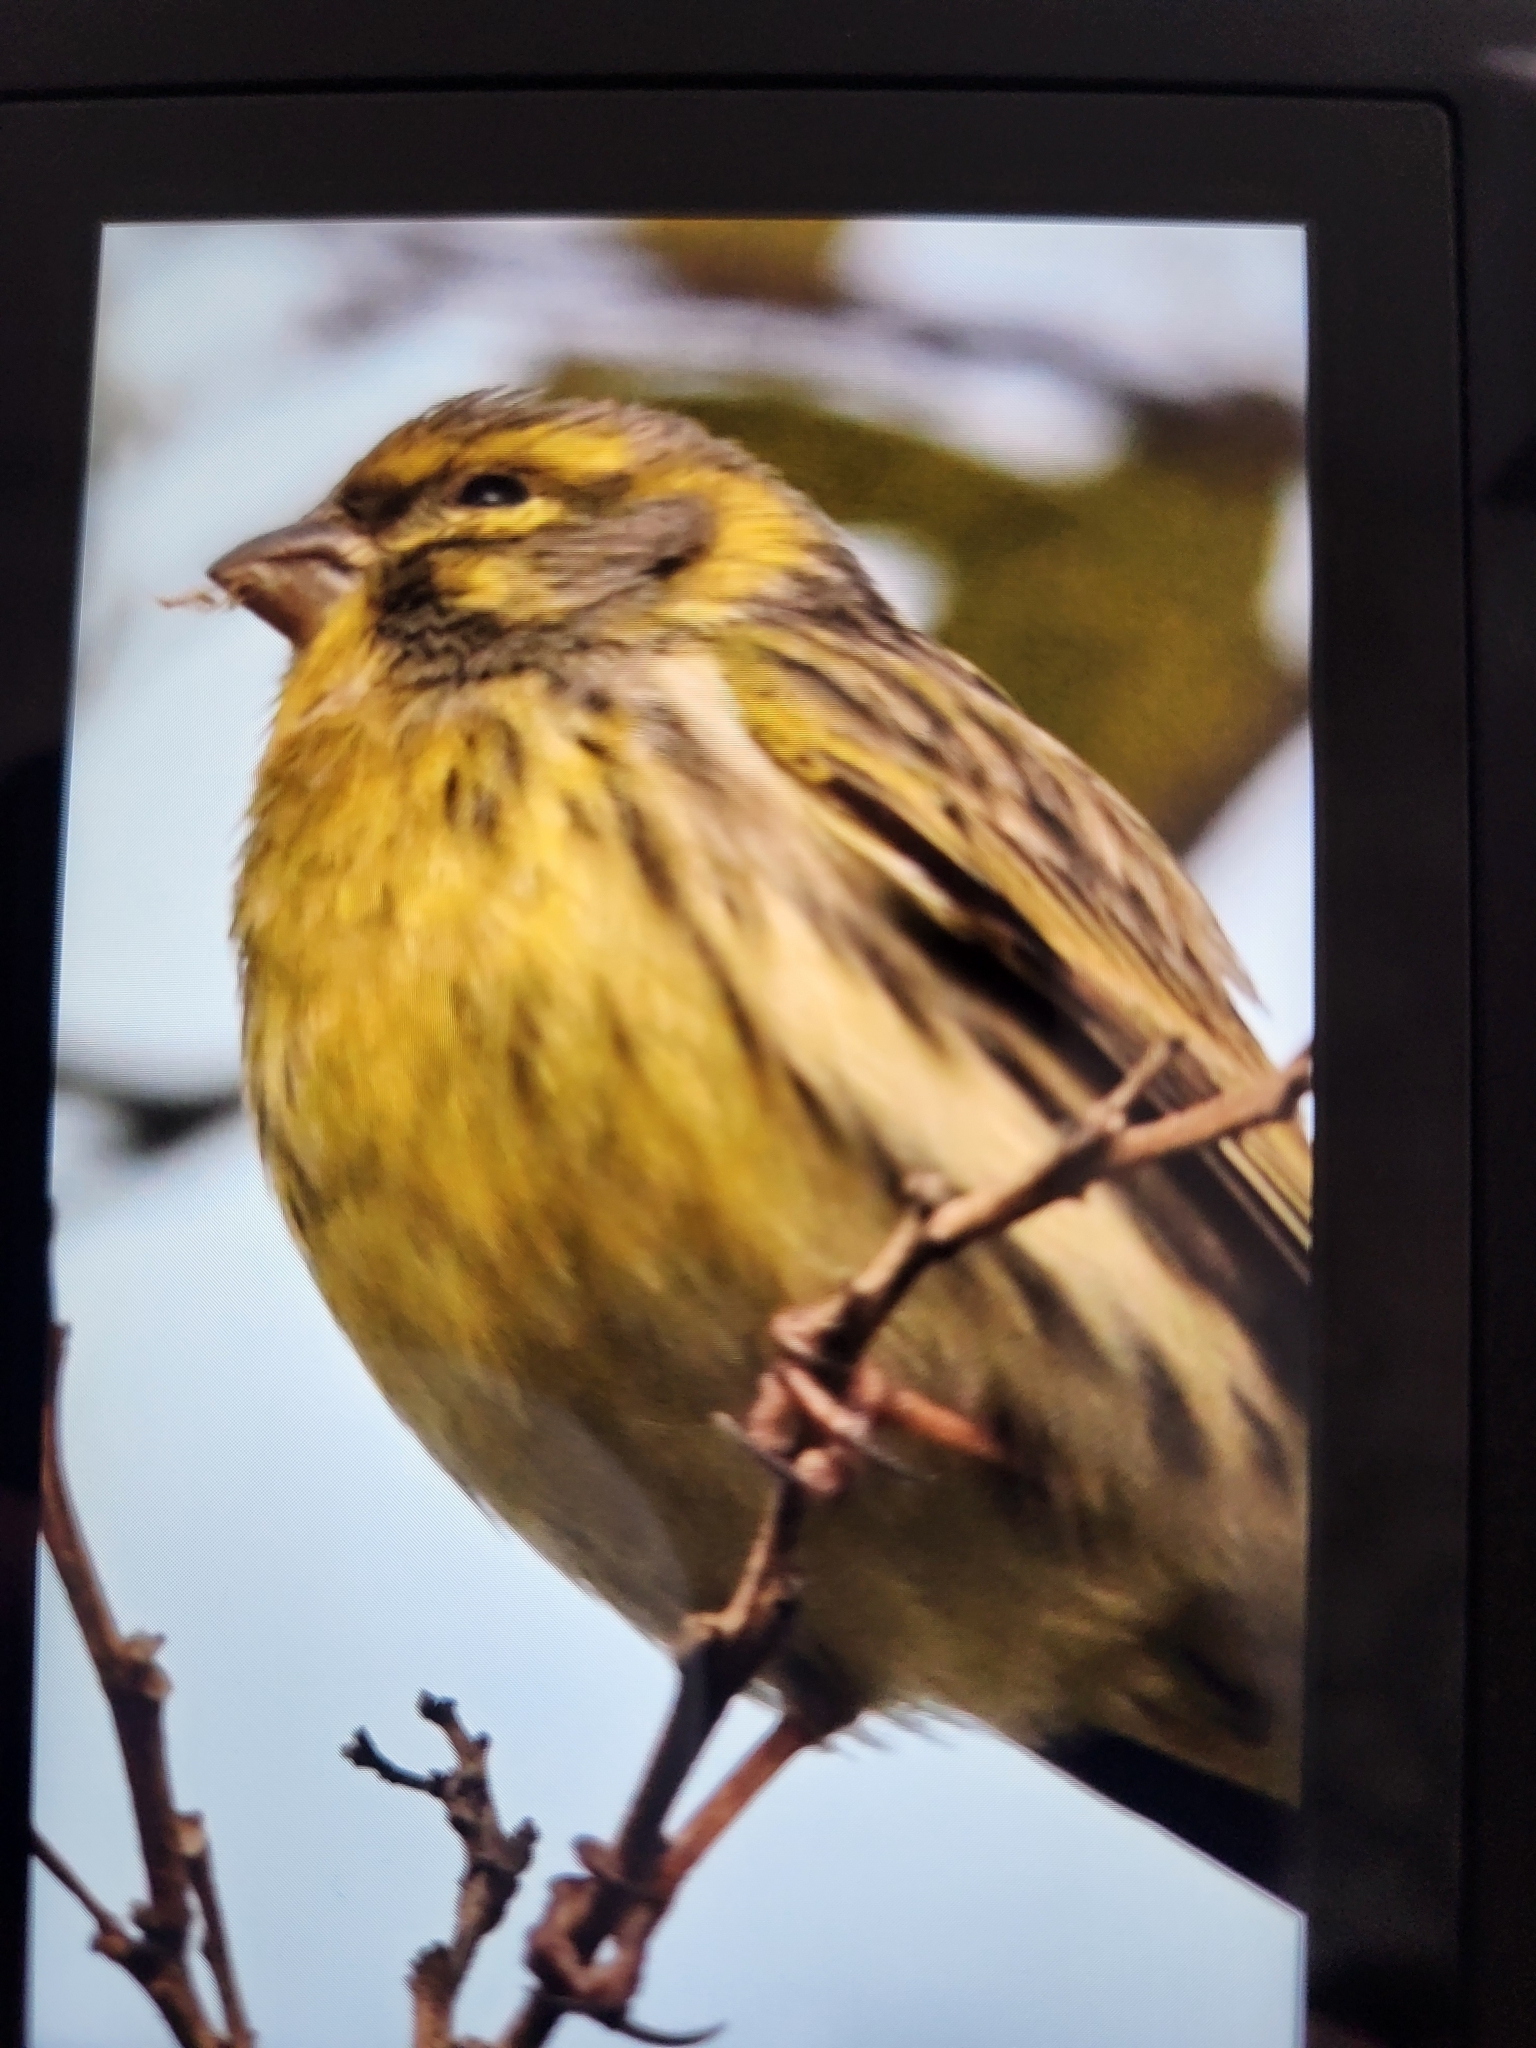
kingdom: Animalia
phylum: Chordata
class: Aves
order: Passeriformes
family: Fringillidae
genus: Serinus
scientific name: Serinus serinus
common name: European serin
